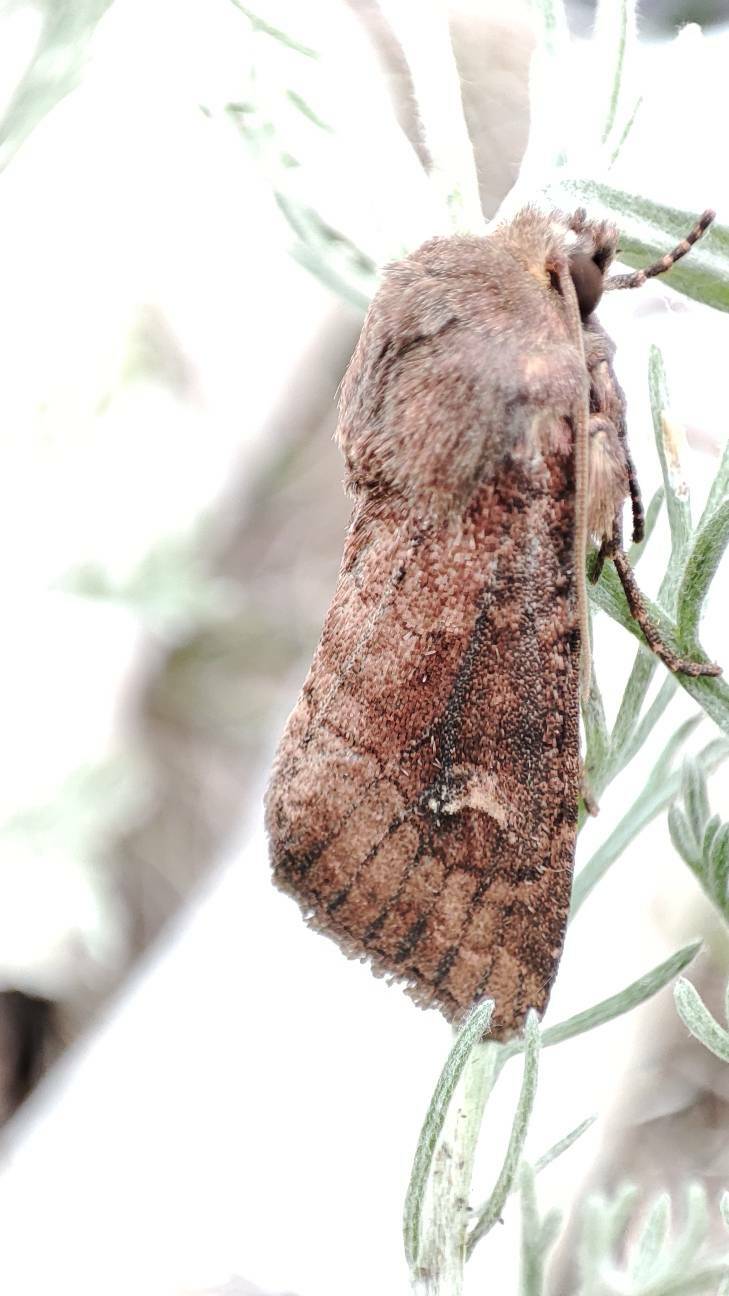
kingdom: Animalia
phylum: Arthropoda
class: Insecta
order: Lepidoptera
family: Noctuidae
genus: Resapamea
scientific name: Resapamea hedeni
